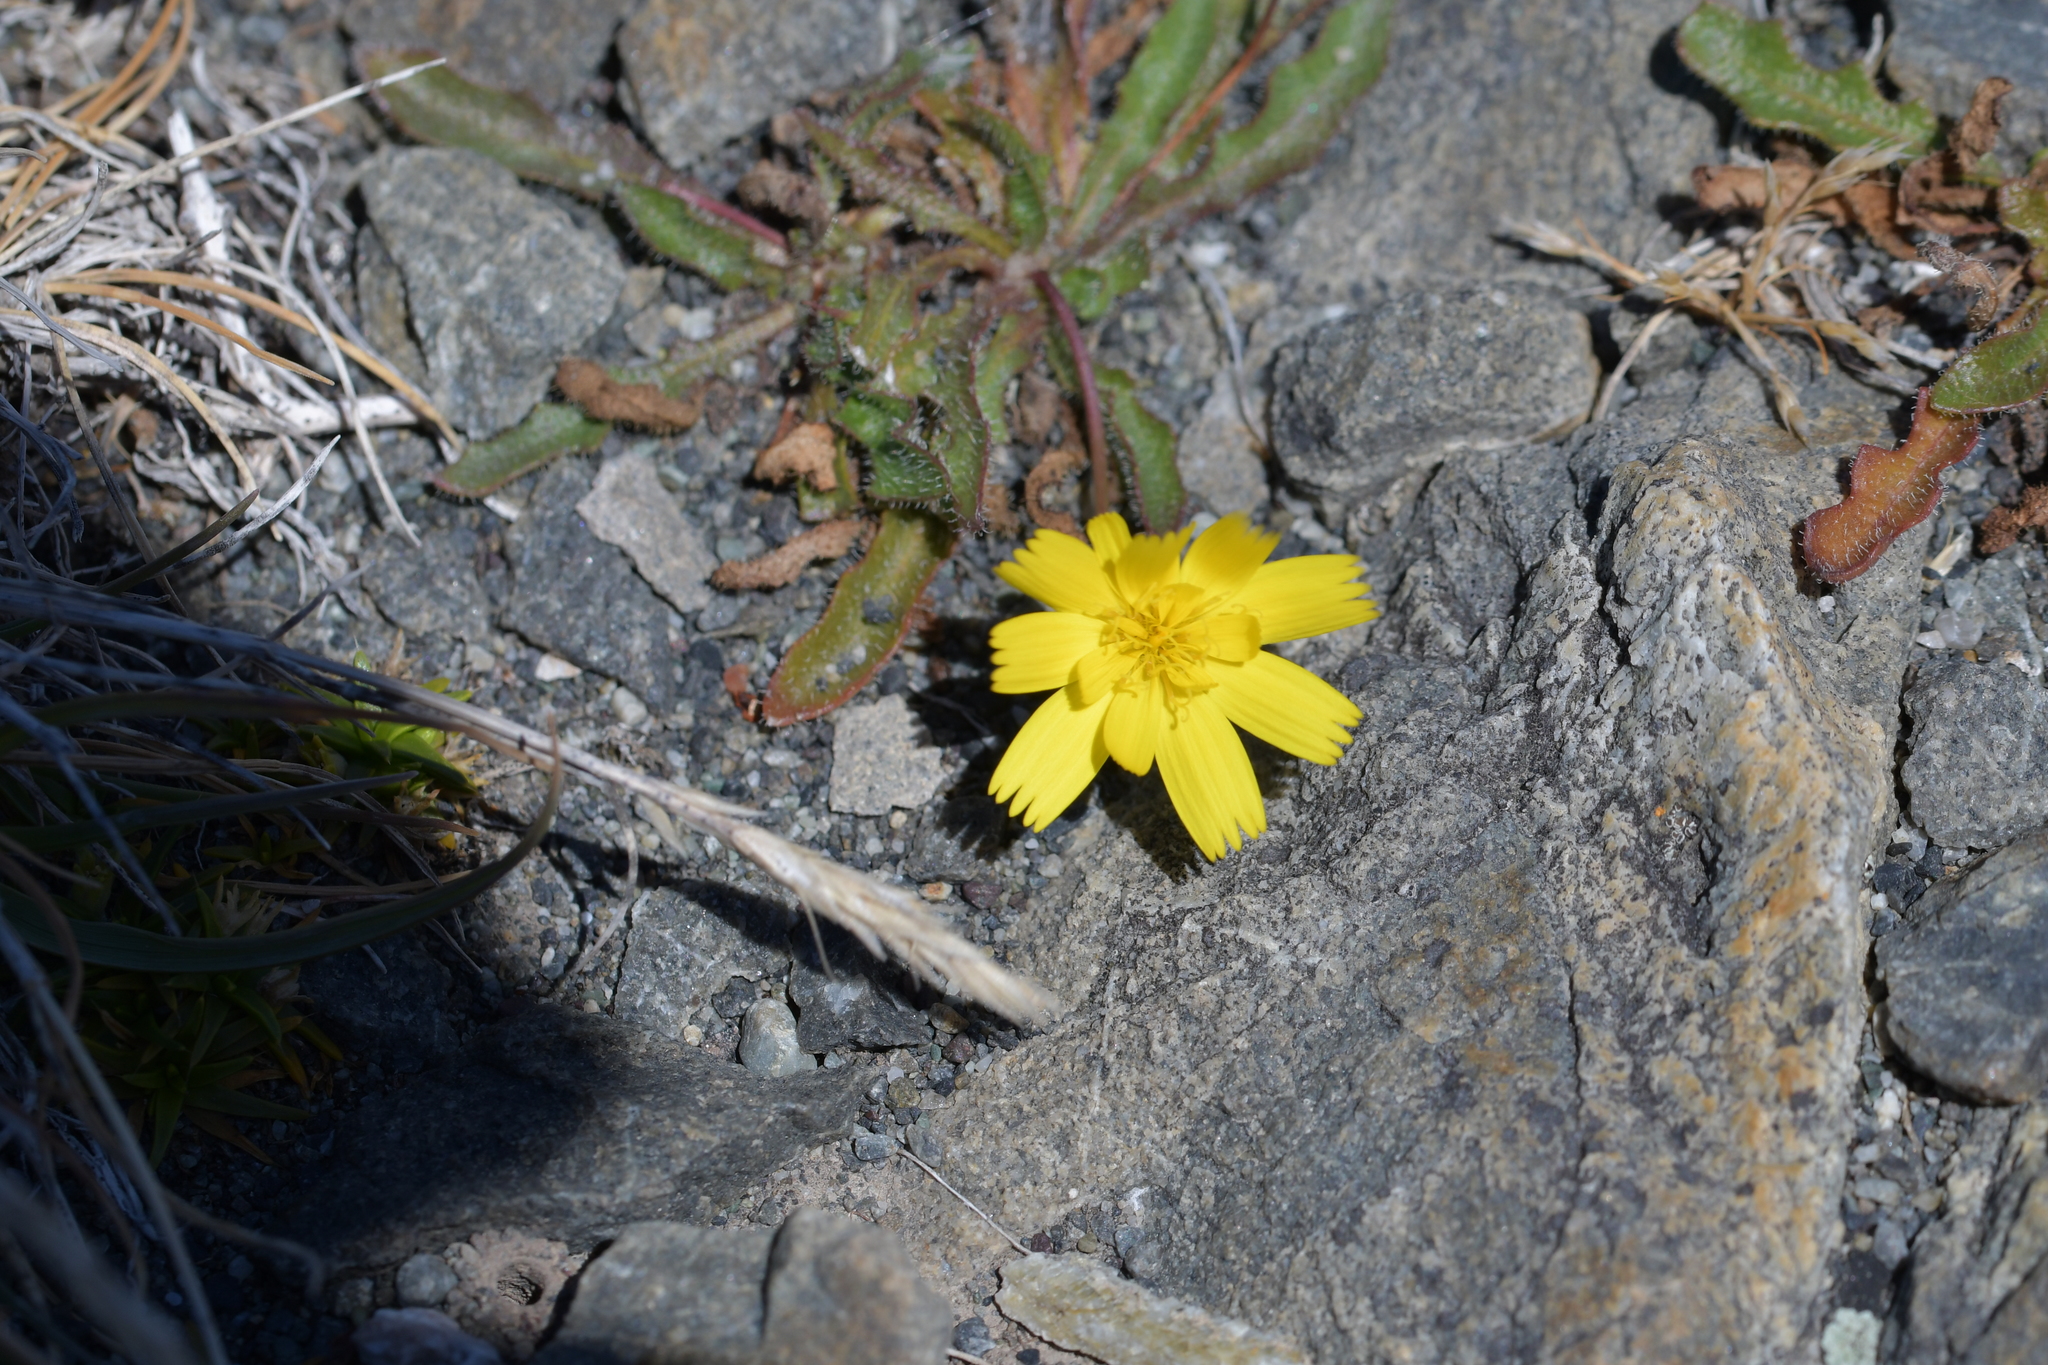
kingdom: Plantae
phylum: Tracheophyta
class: Magnoliopsida
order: Asterales
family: Asteraceae
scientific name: Asteraceae
